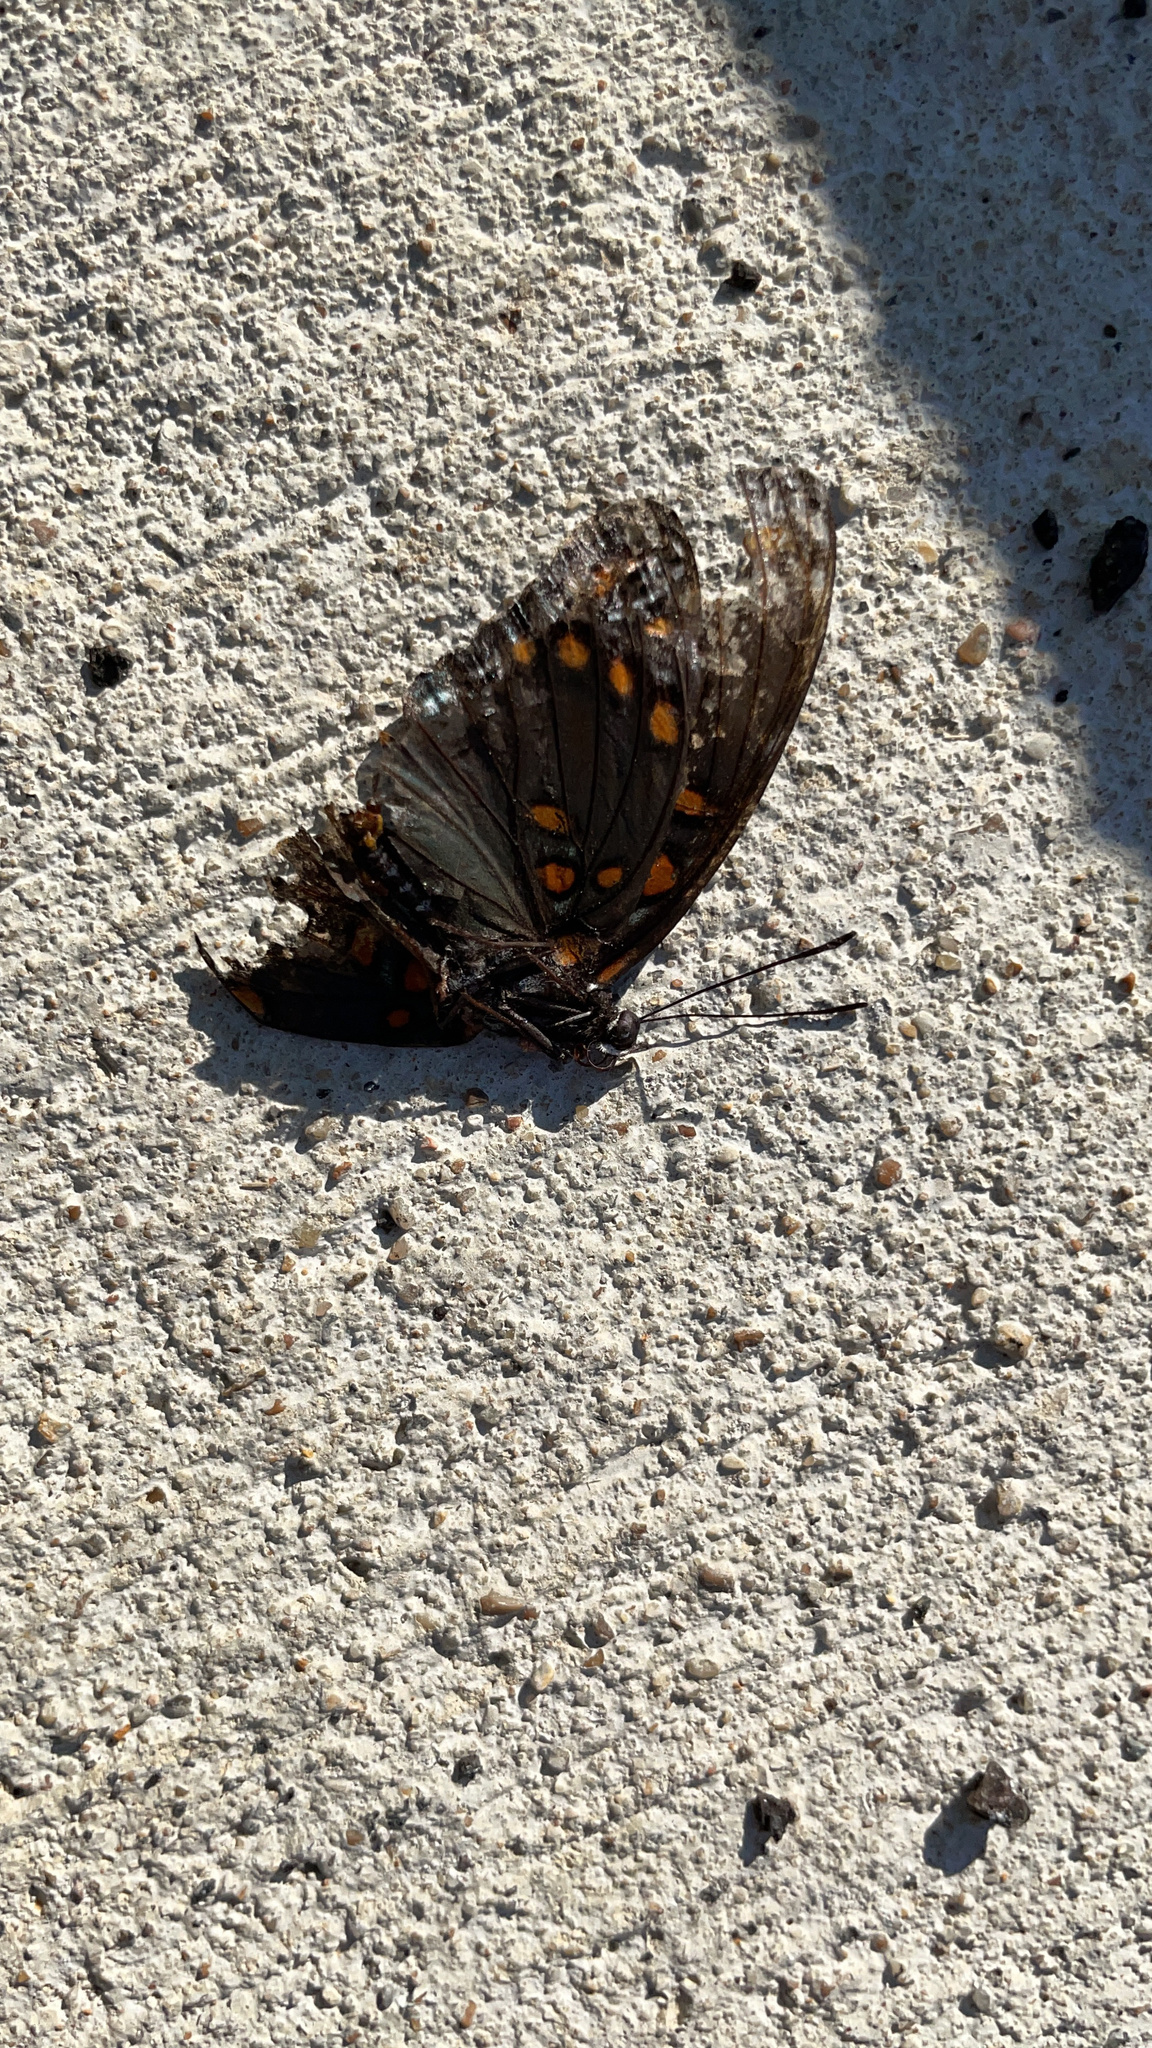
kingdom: Animalia
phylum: Arthropoda
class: Insecta
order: Lepidoptera
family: Nymphalidae
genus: Limenitis
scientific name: Limenitis arthemis
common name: Red-spotted admiral
